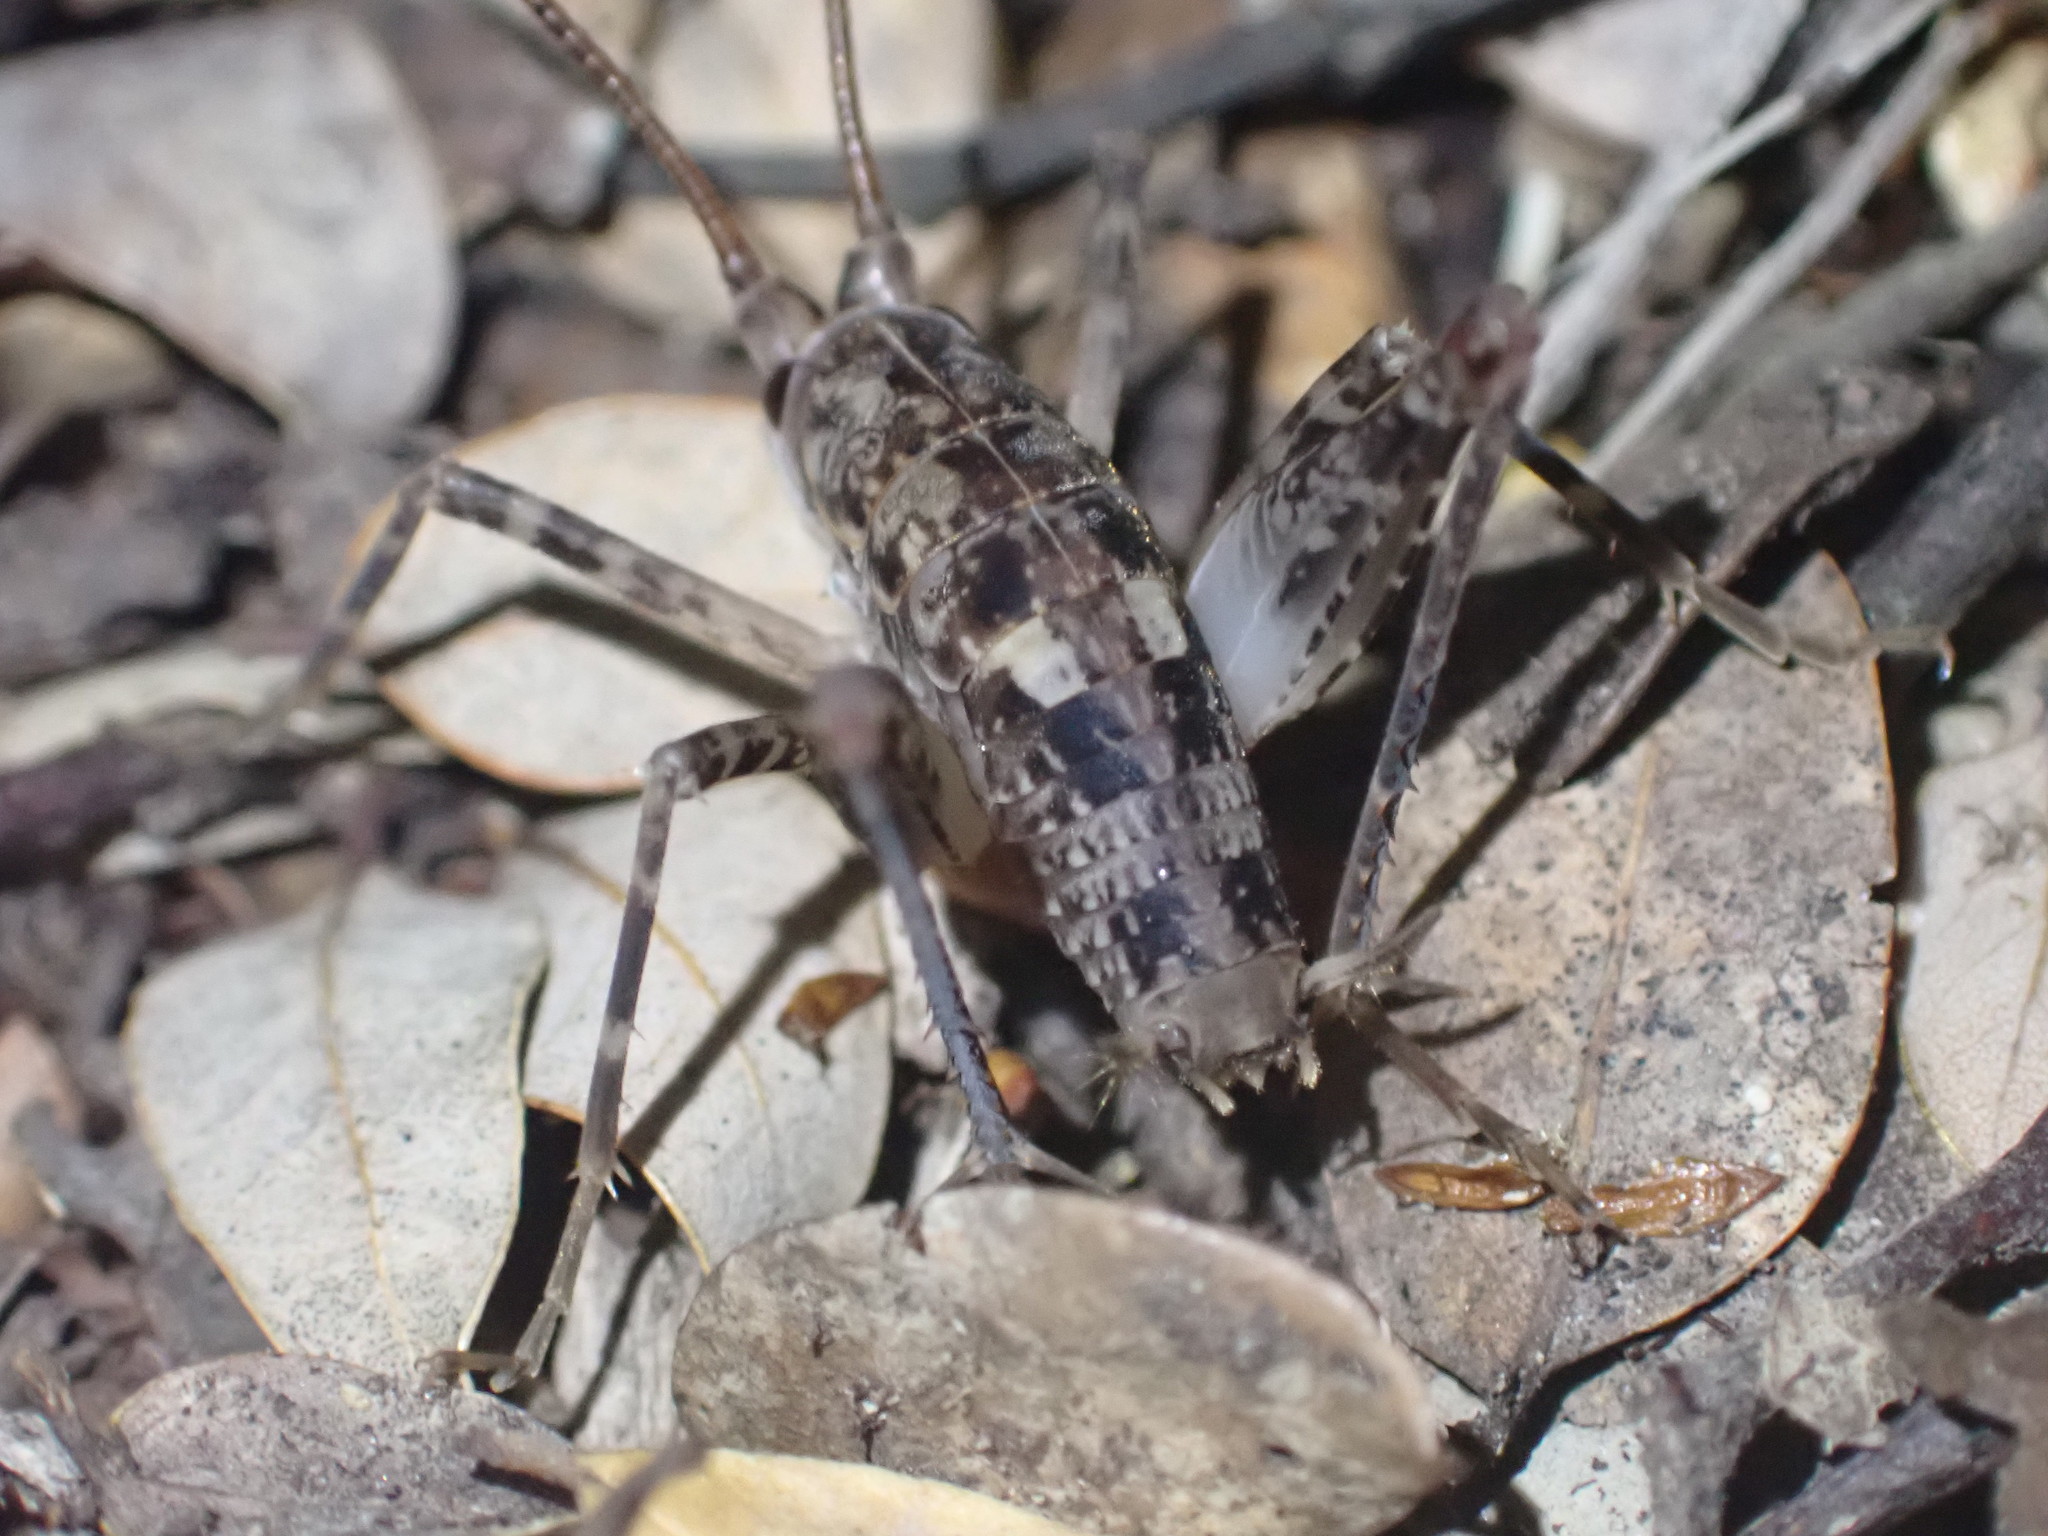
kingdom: Animalia
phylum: Arthropoda
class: Insecta
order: Orthoptera
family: Rhaphidophoridae
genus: Pleioplectron
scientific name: Pleioplectron simplex
